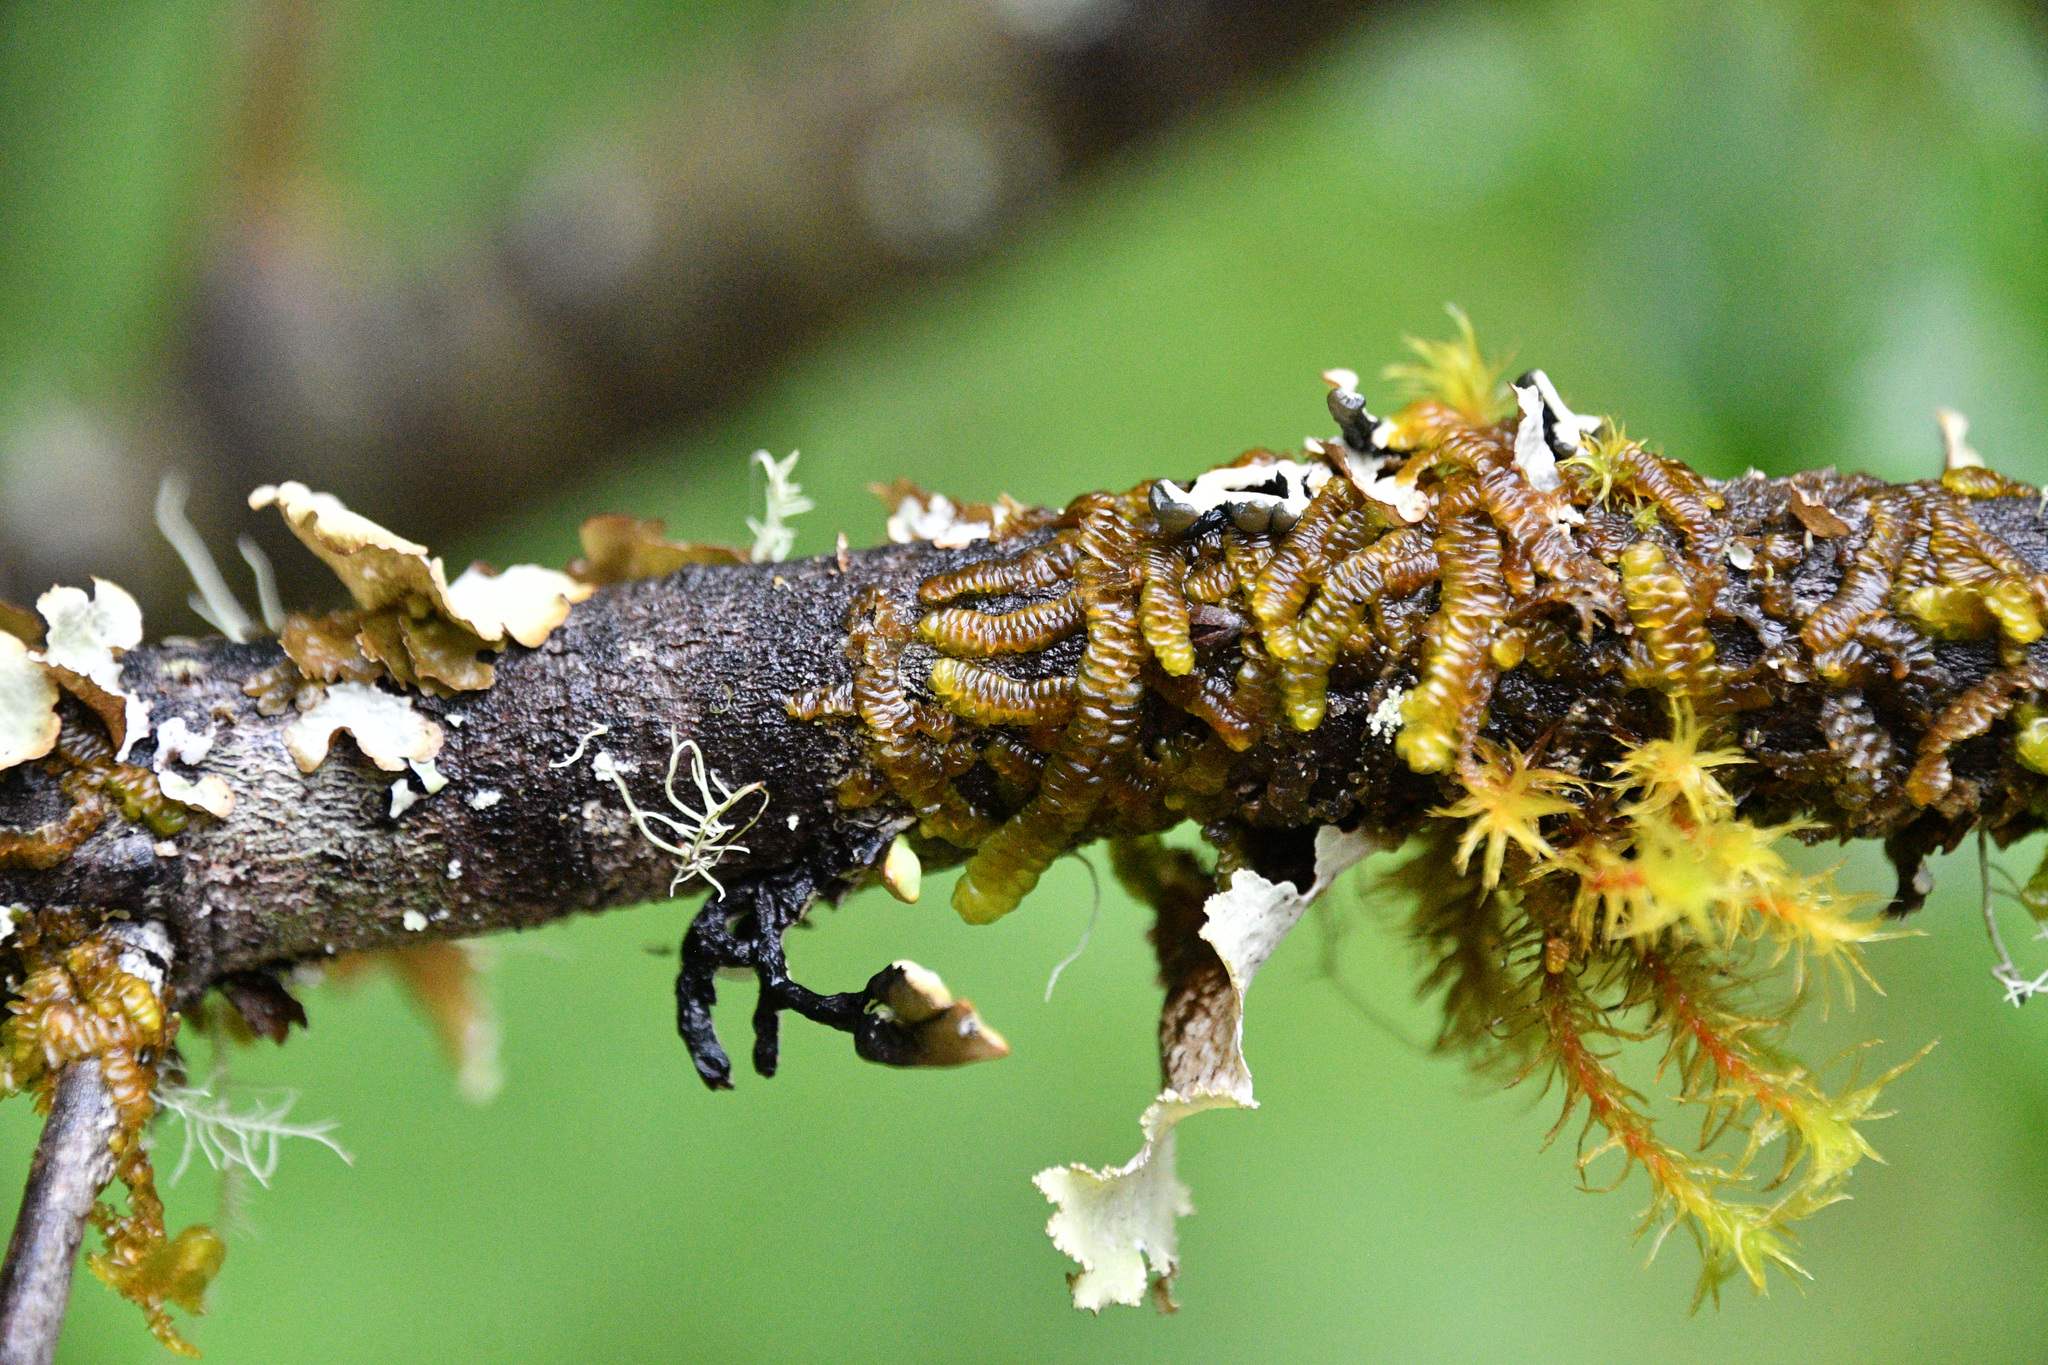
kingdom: Plantae
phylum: Marchantiophyta
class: Jungermanniopsida
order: Porellales
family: Porellaceae
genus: Porella
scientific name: Porella navicularis
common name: Tree ruffle liverwort
